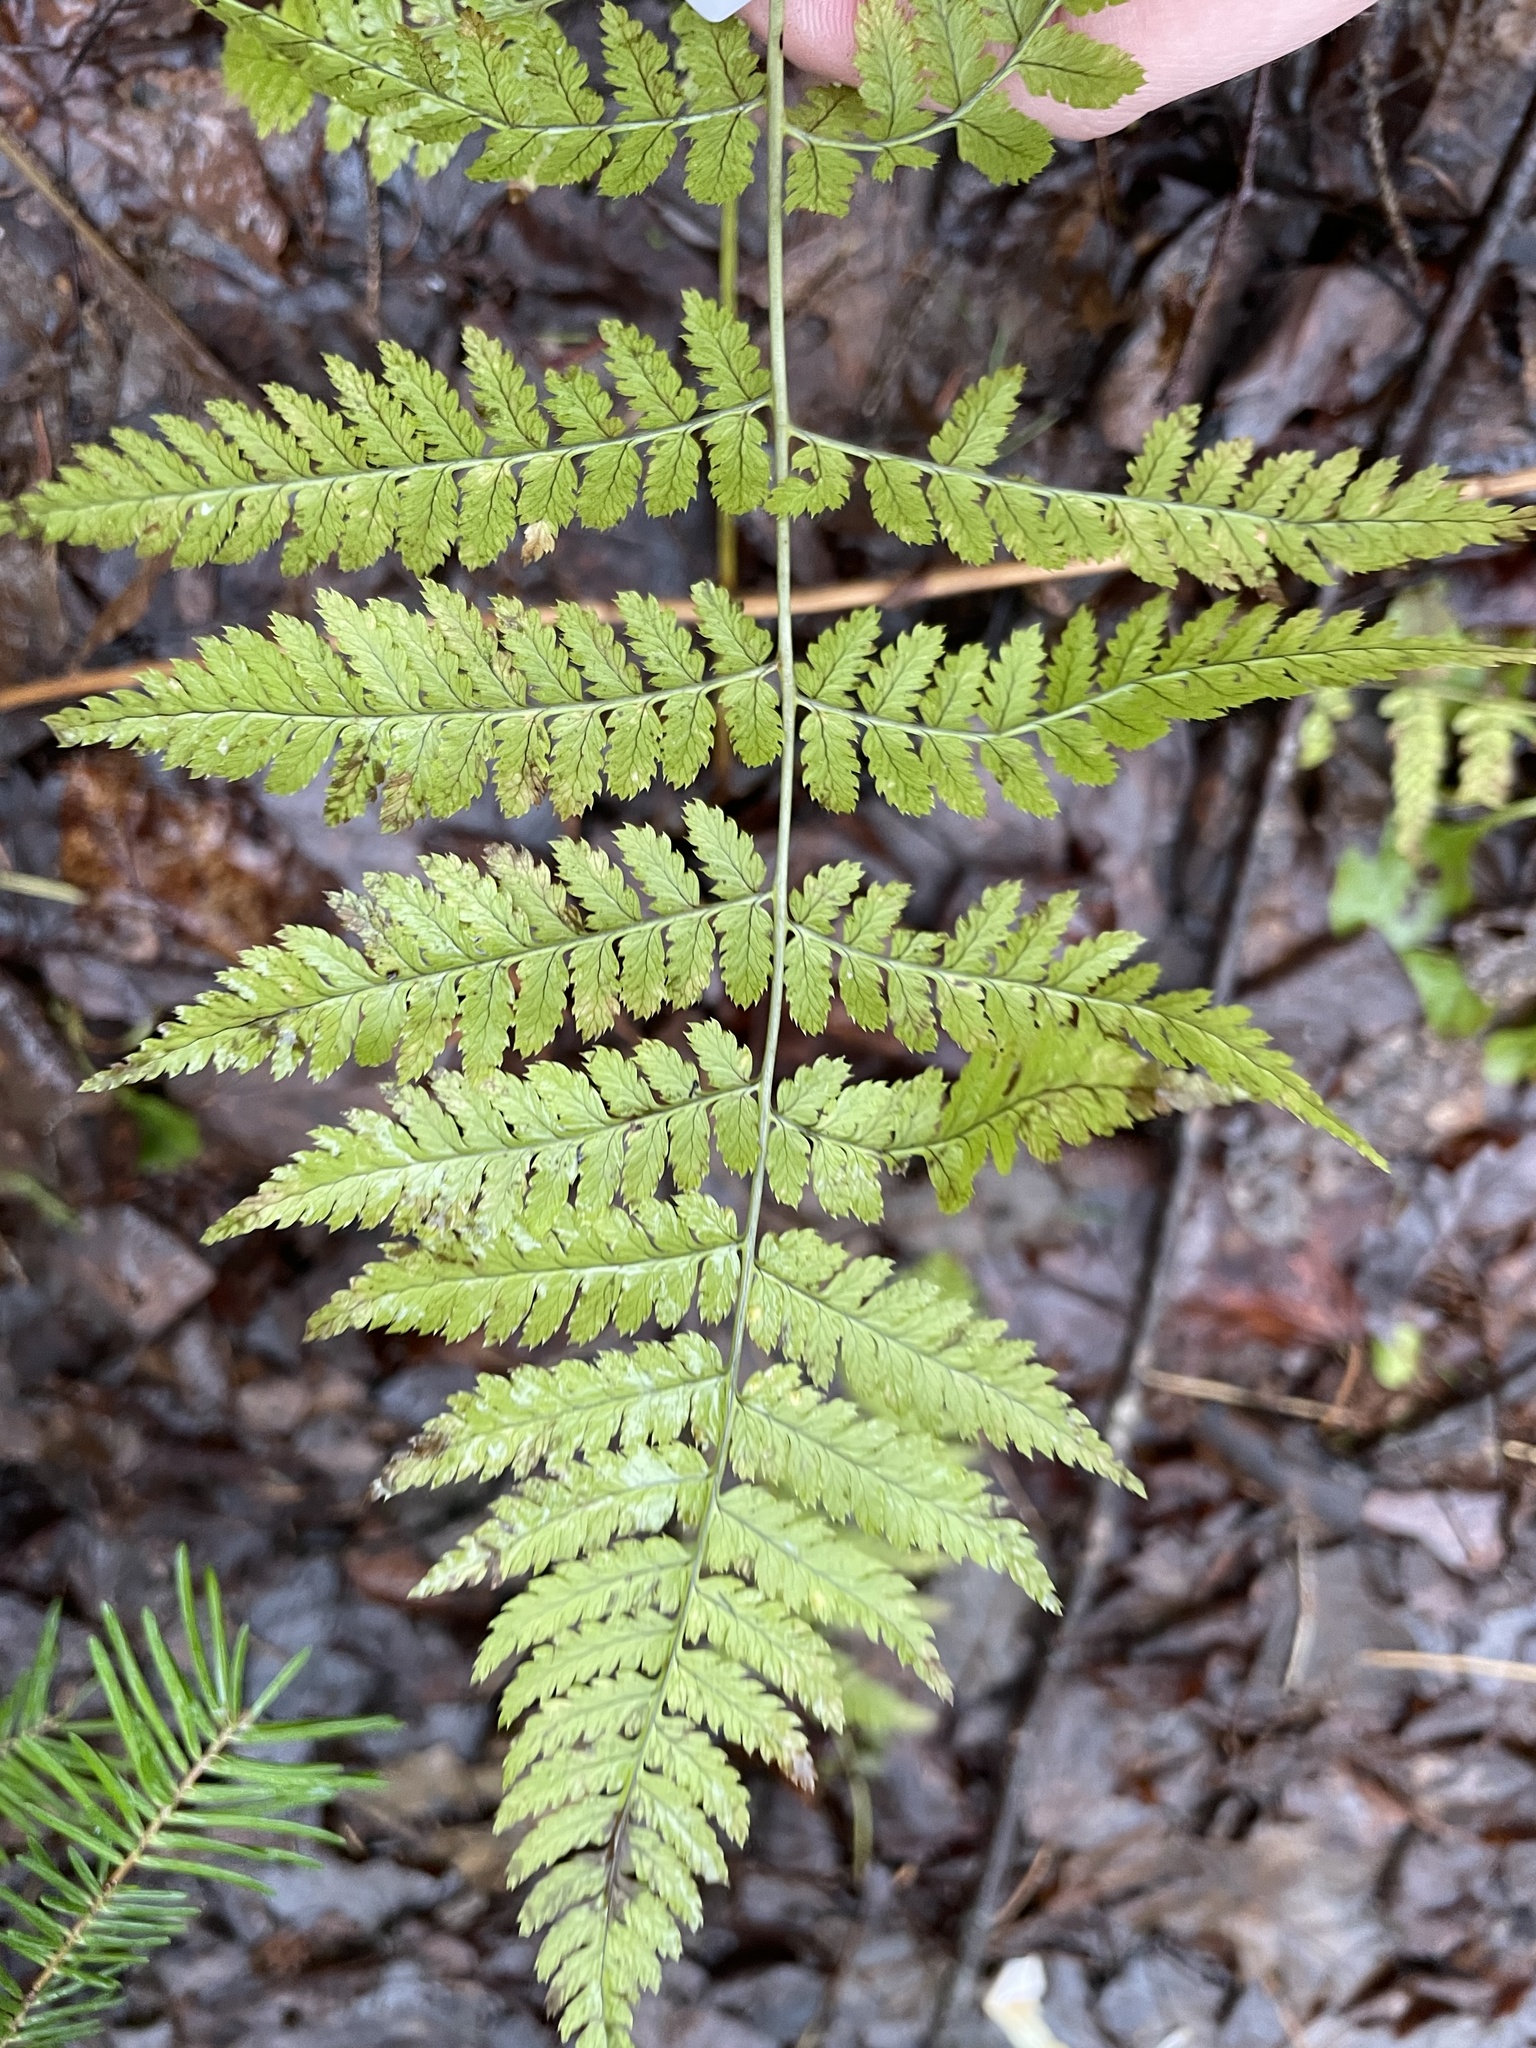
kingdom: Plantae
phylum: Tracheophyta
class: Polypodiopsida
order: Polypodiales
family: Dryopteridaceae
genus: Dryopteris
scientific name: Dryopteris intermedia
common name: Evergreen wood fern
